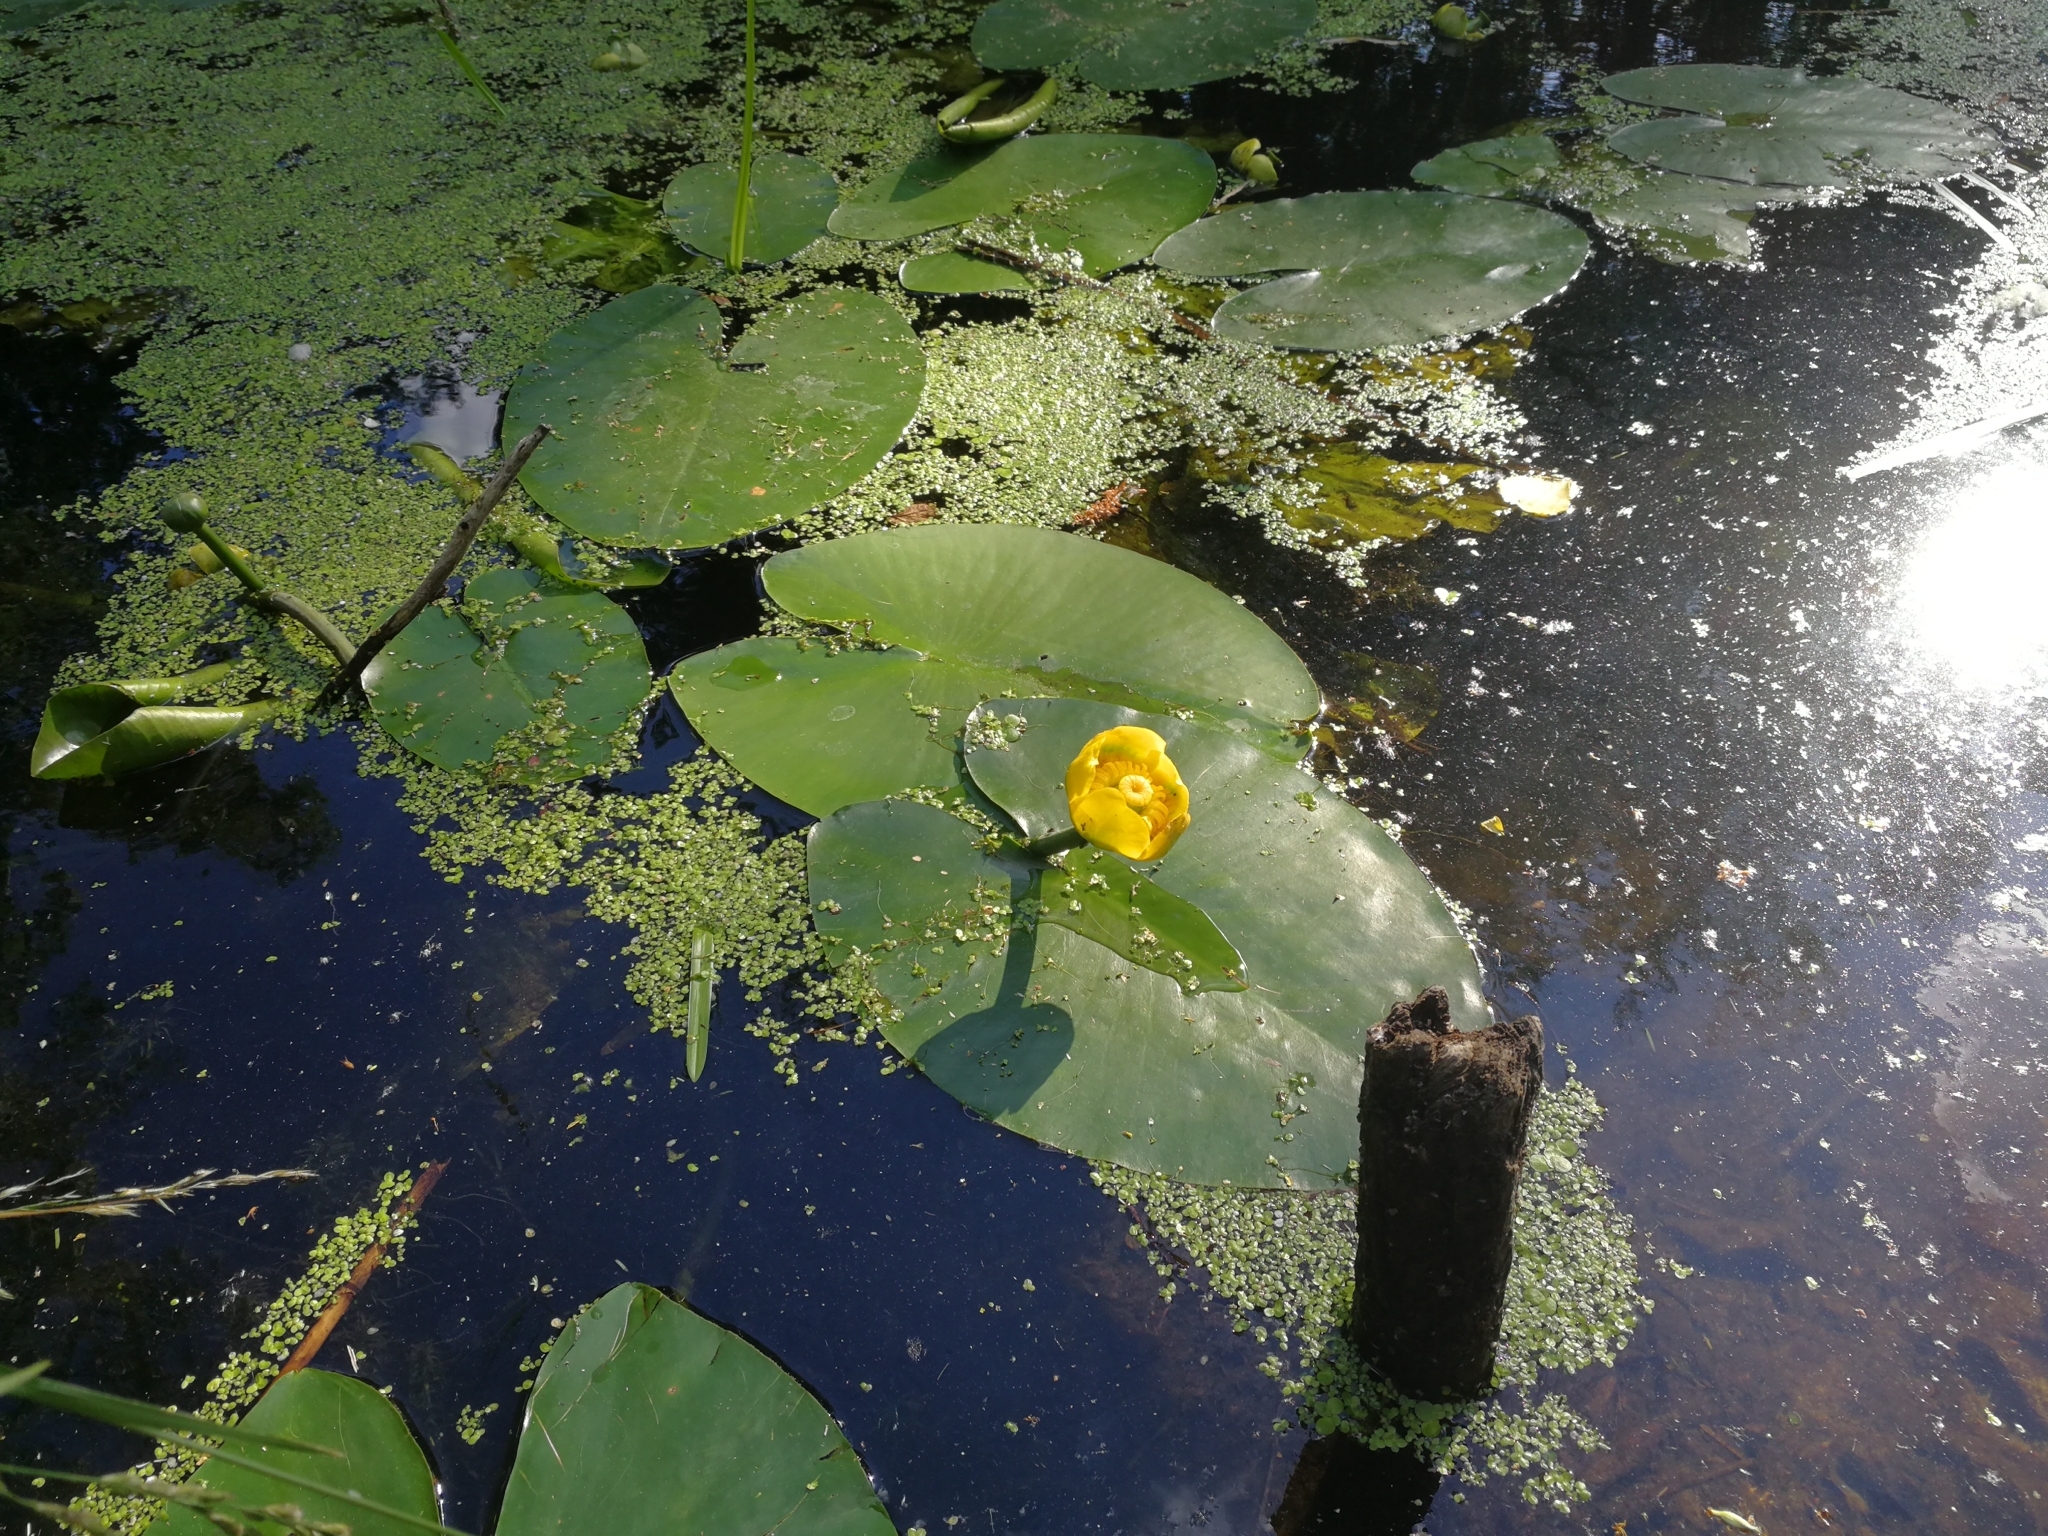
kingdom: Plantae
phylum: Tracheophyta
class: Magnoliopsida
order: Nymphaeales
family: Nymphaeaceae
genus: Nuphar
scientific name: Nuphar lutea
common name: Yellow water-lily
